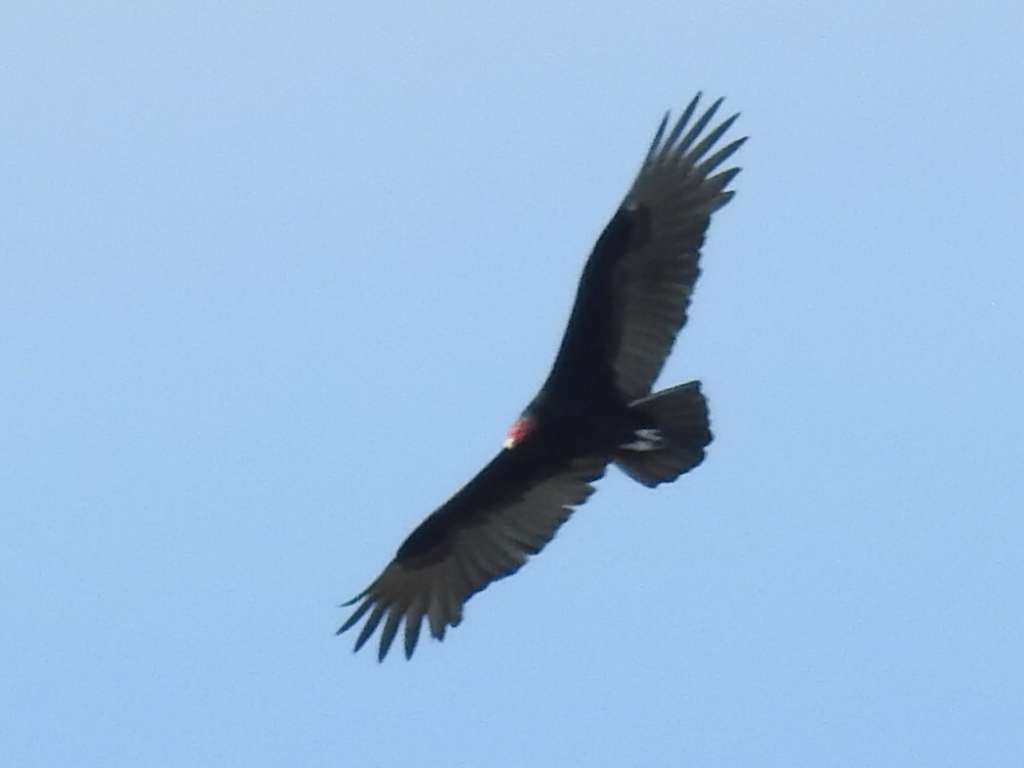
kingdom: Animalia
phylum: Chordata
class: Aves
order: Accipitriformes
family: Cathartidae
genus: Cathartes
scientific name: Cathartes aura
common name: Turkey vulture
